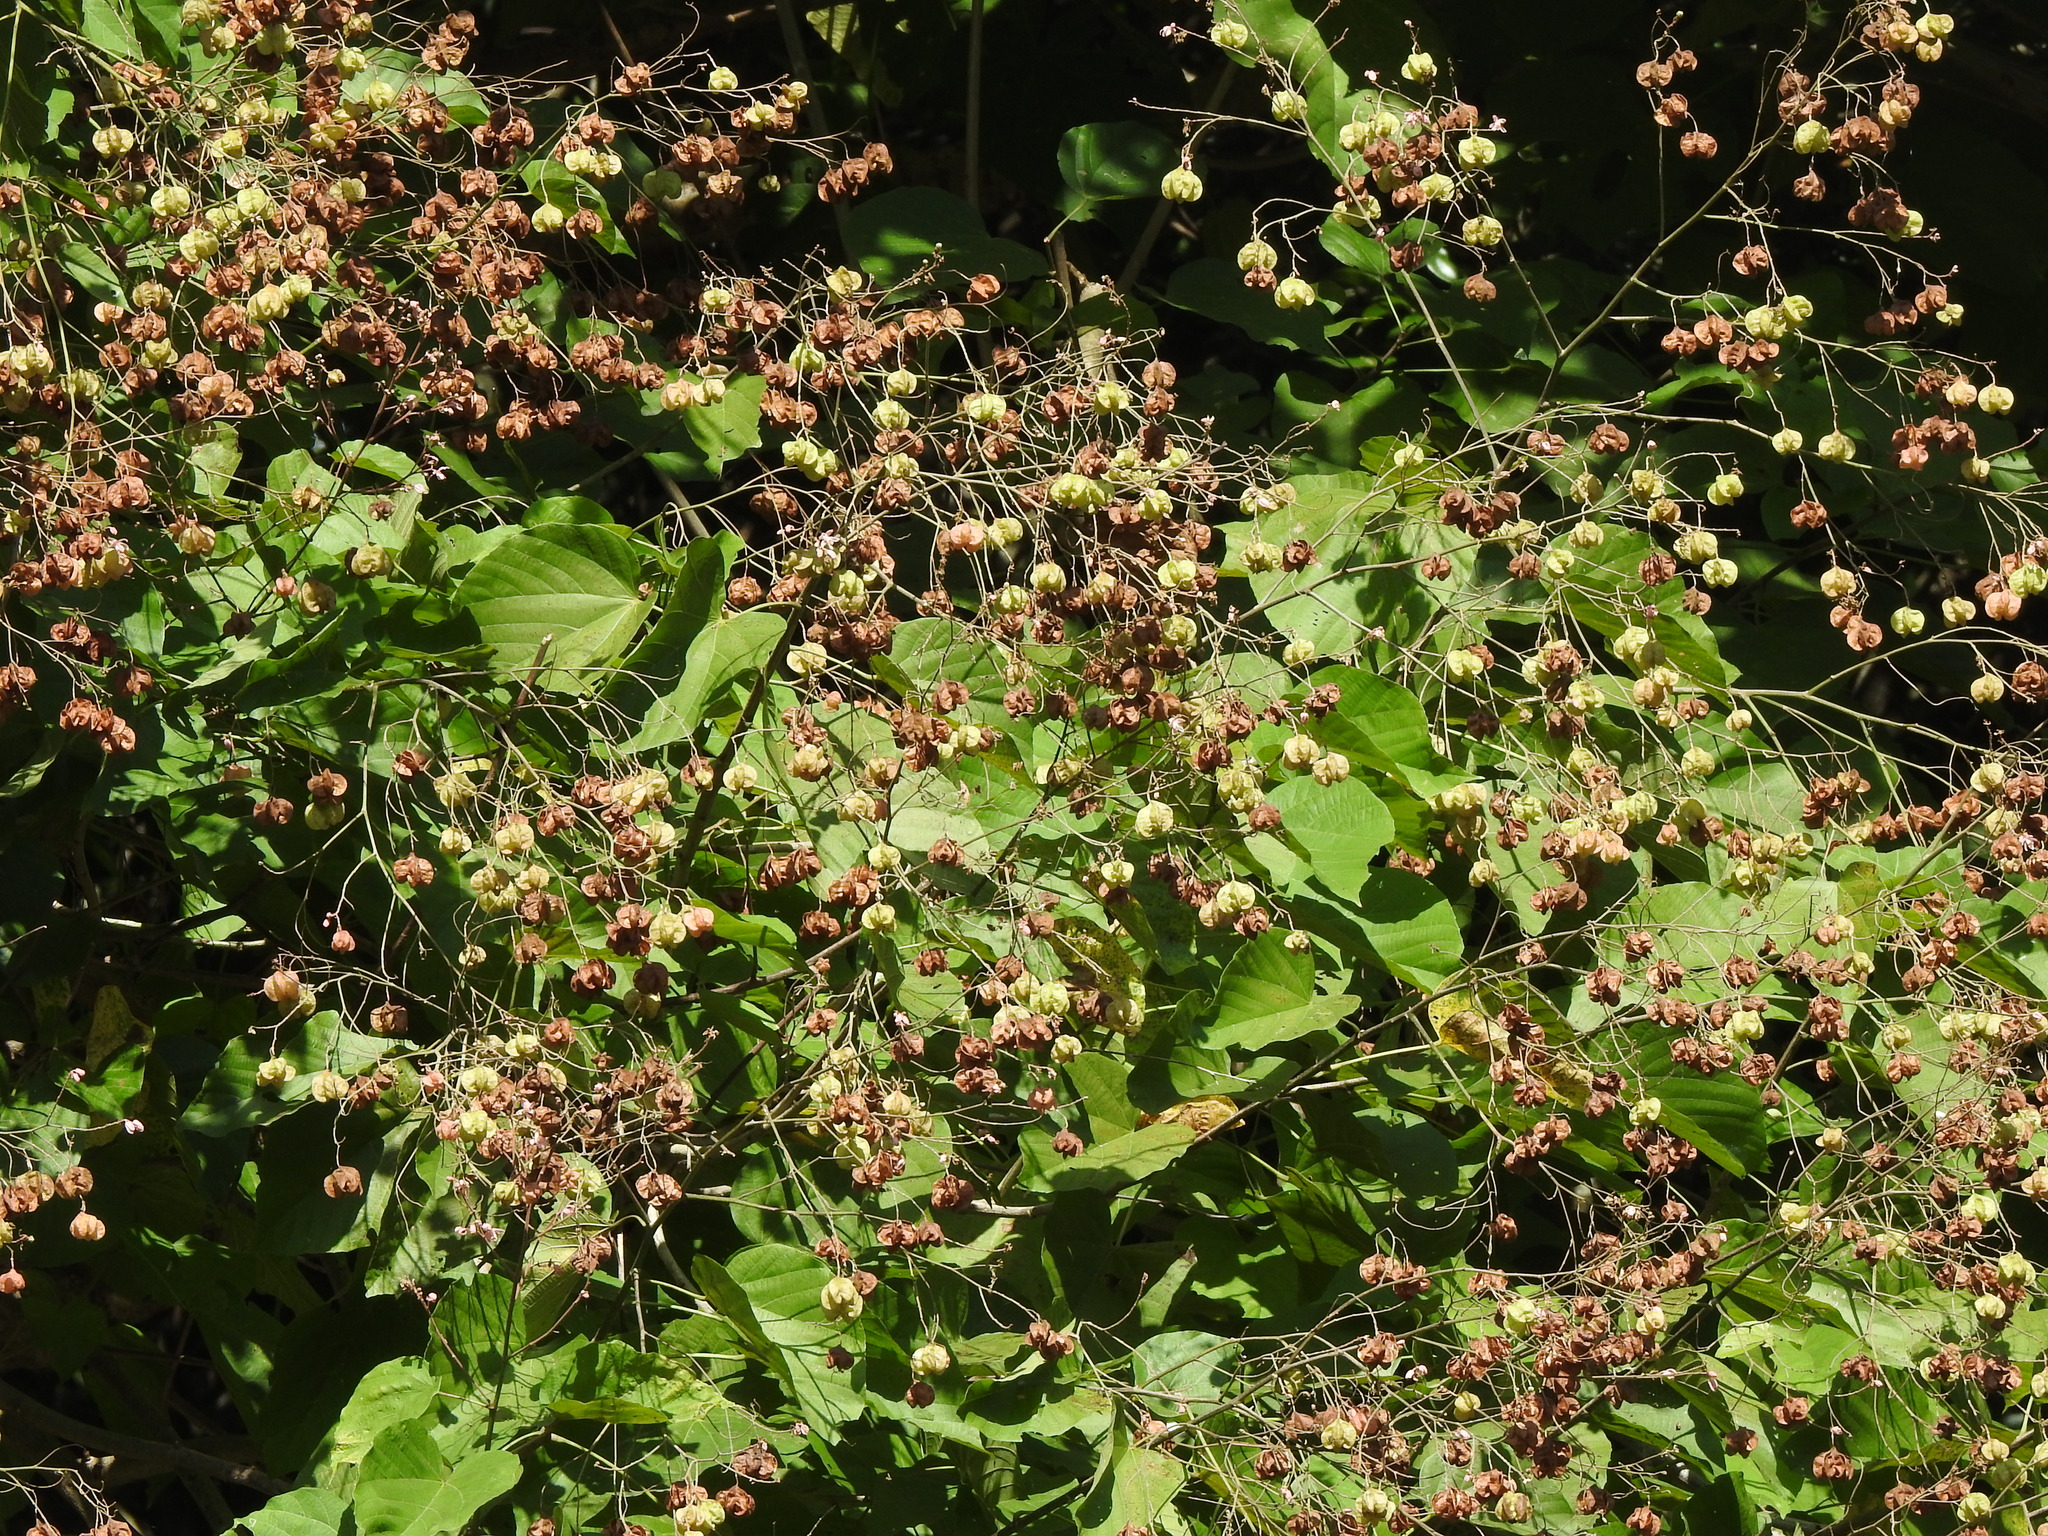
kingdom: Plantae
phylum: Tracheophyta
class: Magnoliopsida
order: Malvales
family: Malvaceae
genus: Kleinhovia
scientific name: Kleinhovia hospita
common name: Guest-tree
